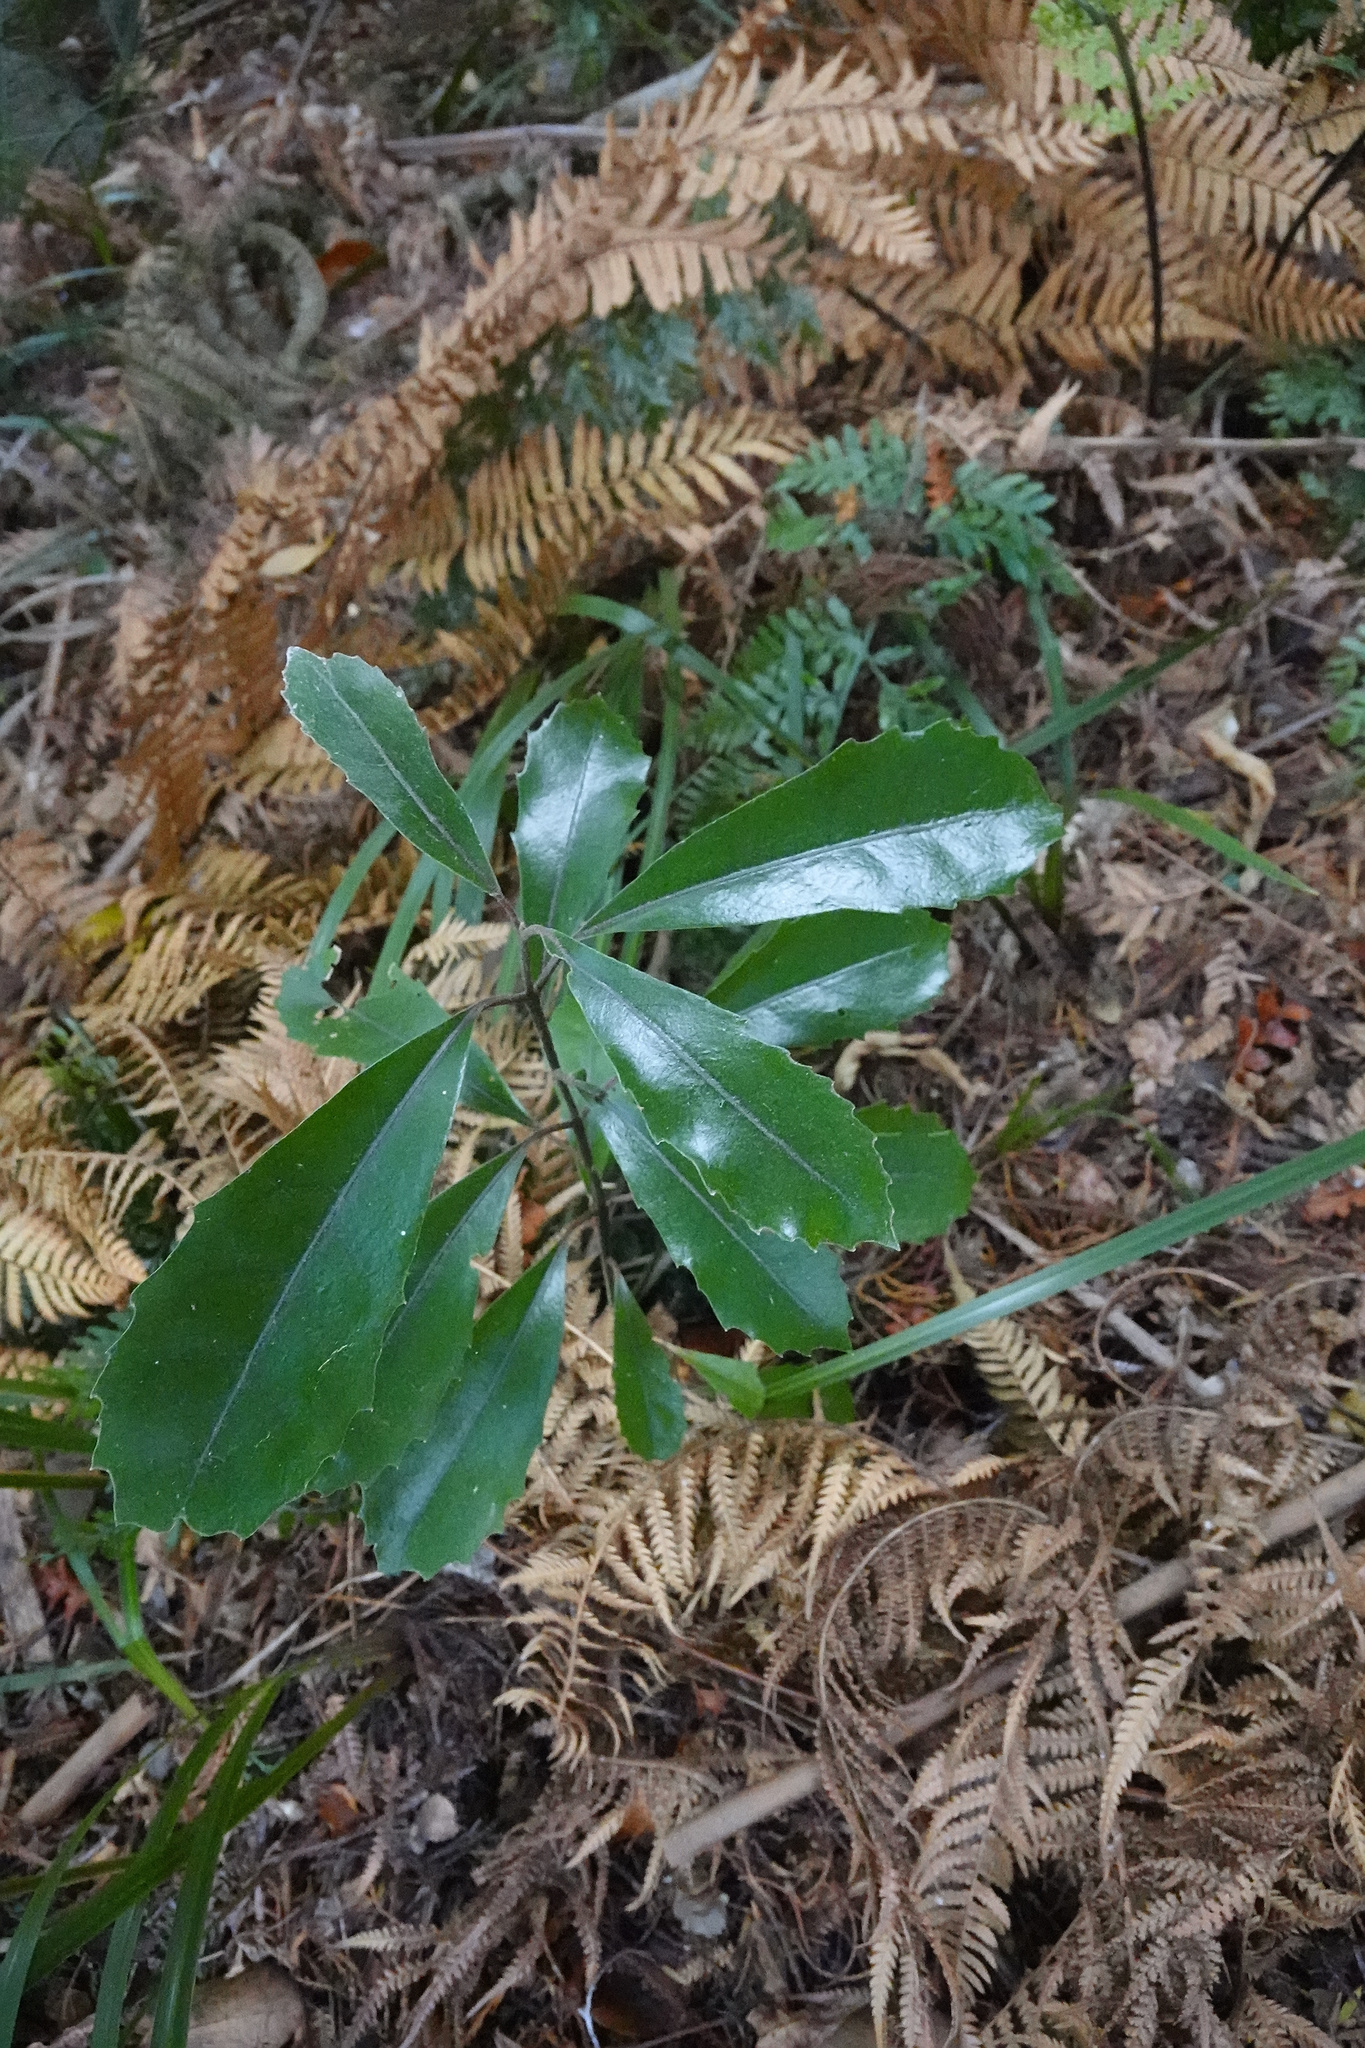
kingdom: Plantae
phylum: Tracheophyta
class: Magnoliopsida
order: Laurales
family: Monimiaceae
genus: Hedycarya
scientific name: Hedycarya arborea
